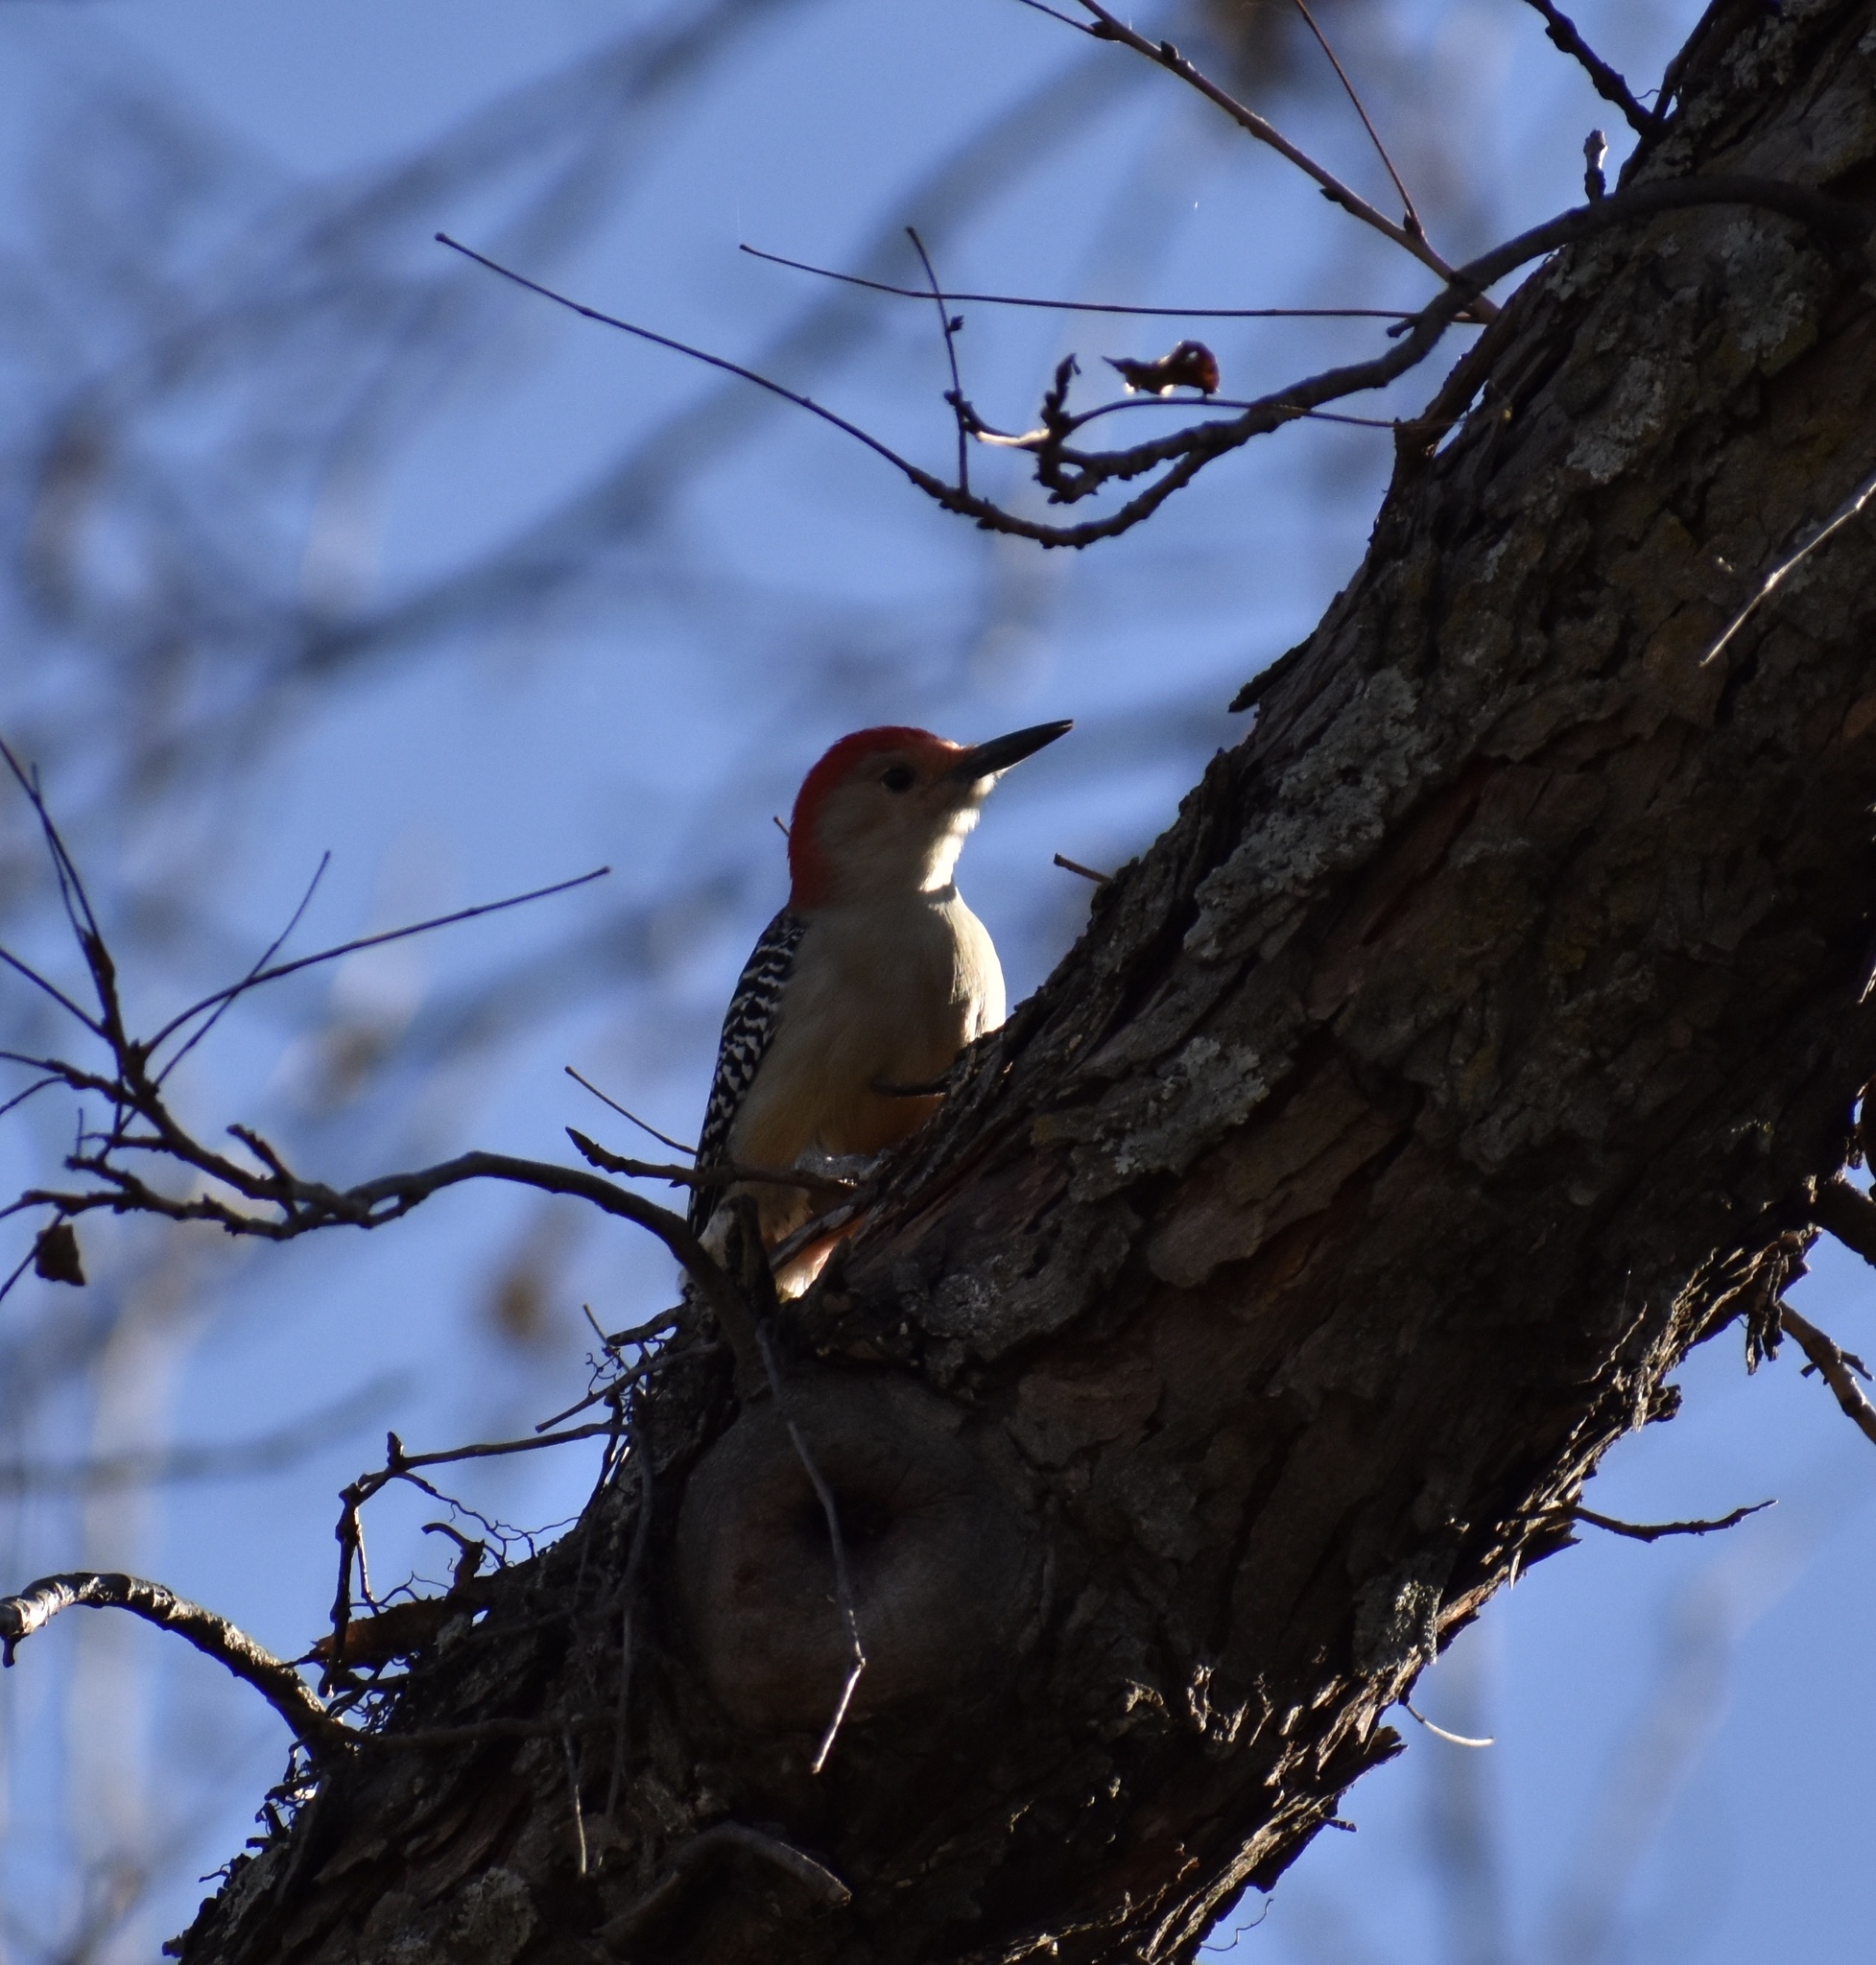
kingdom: Animalia
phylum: Chordata
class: Aves
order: Piciformes
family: Picidae
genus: Melanerpes
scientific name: Melanerpes carolinus
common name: Red-bellied woodpecker
